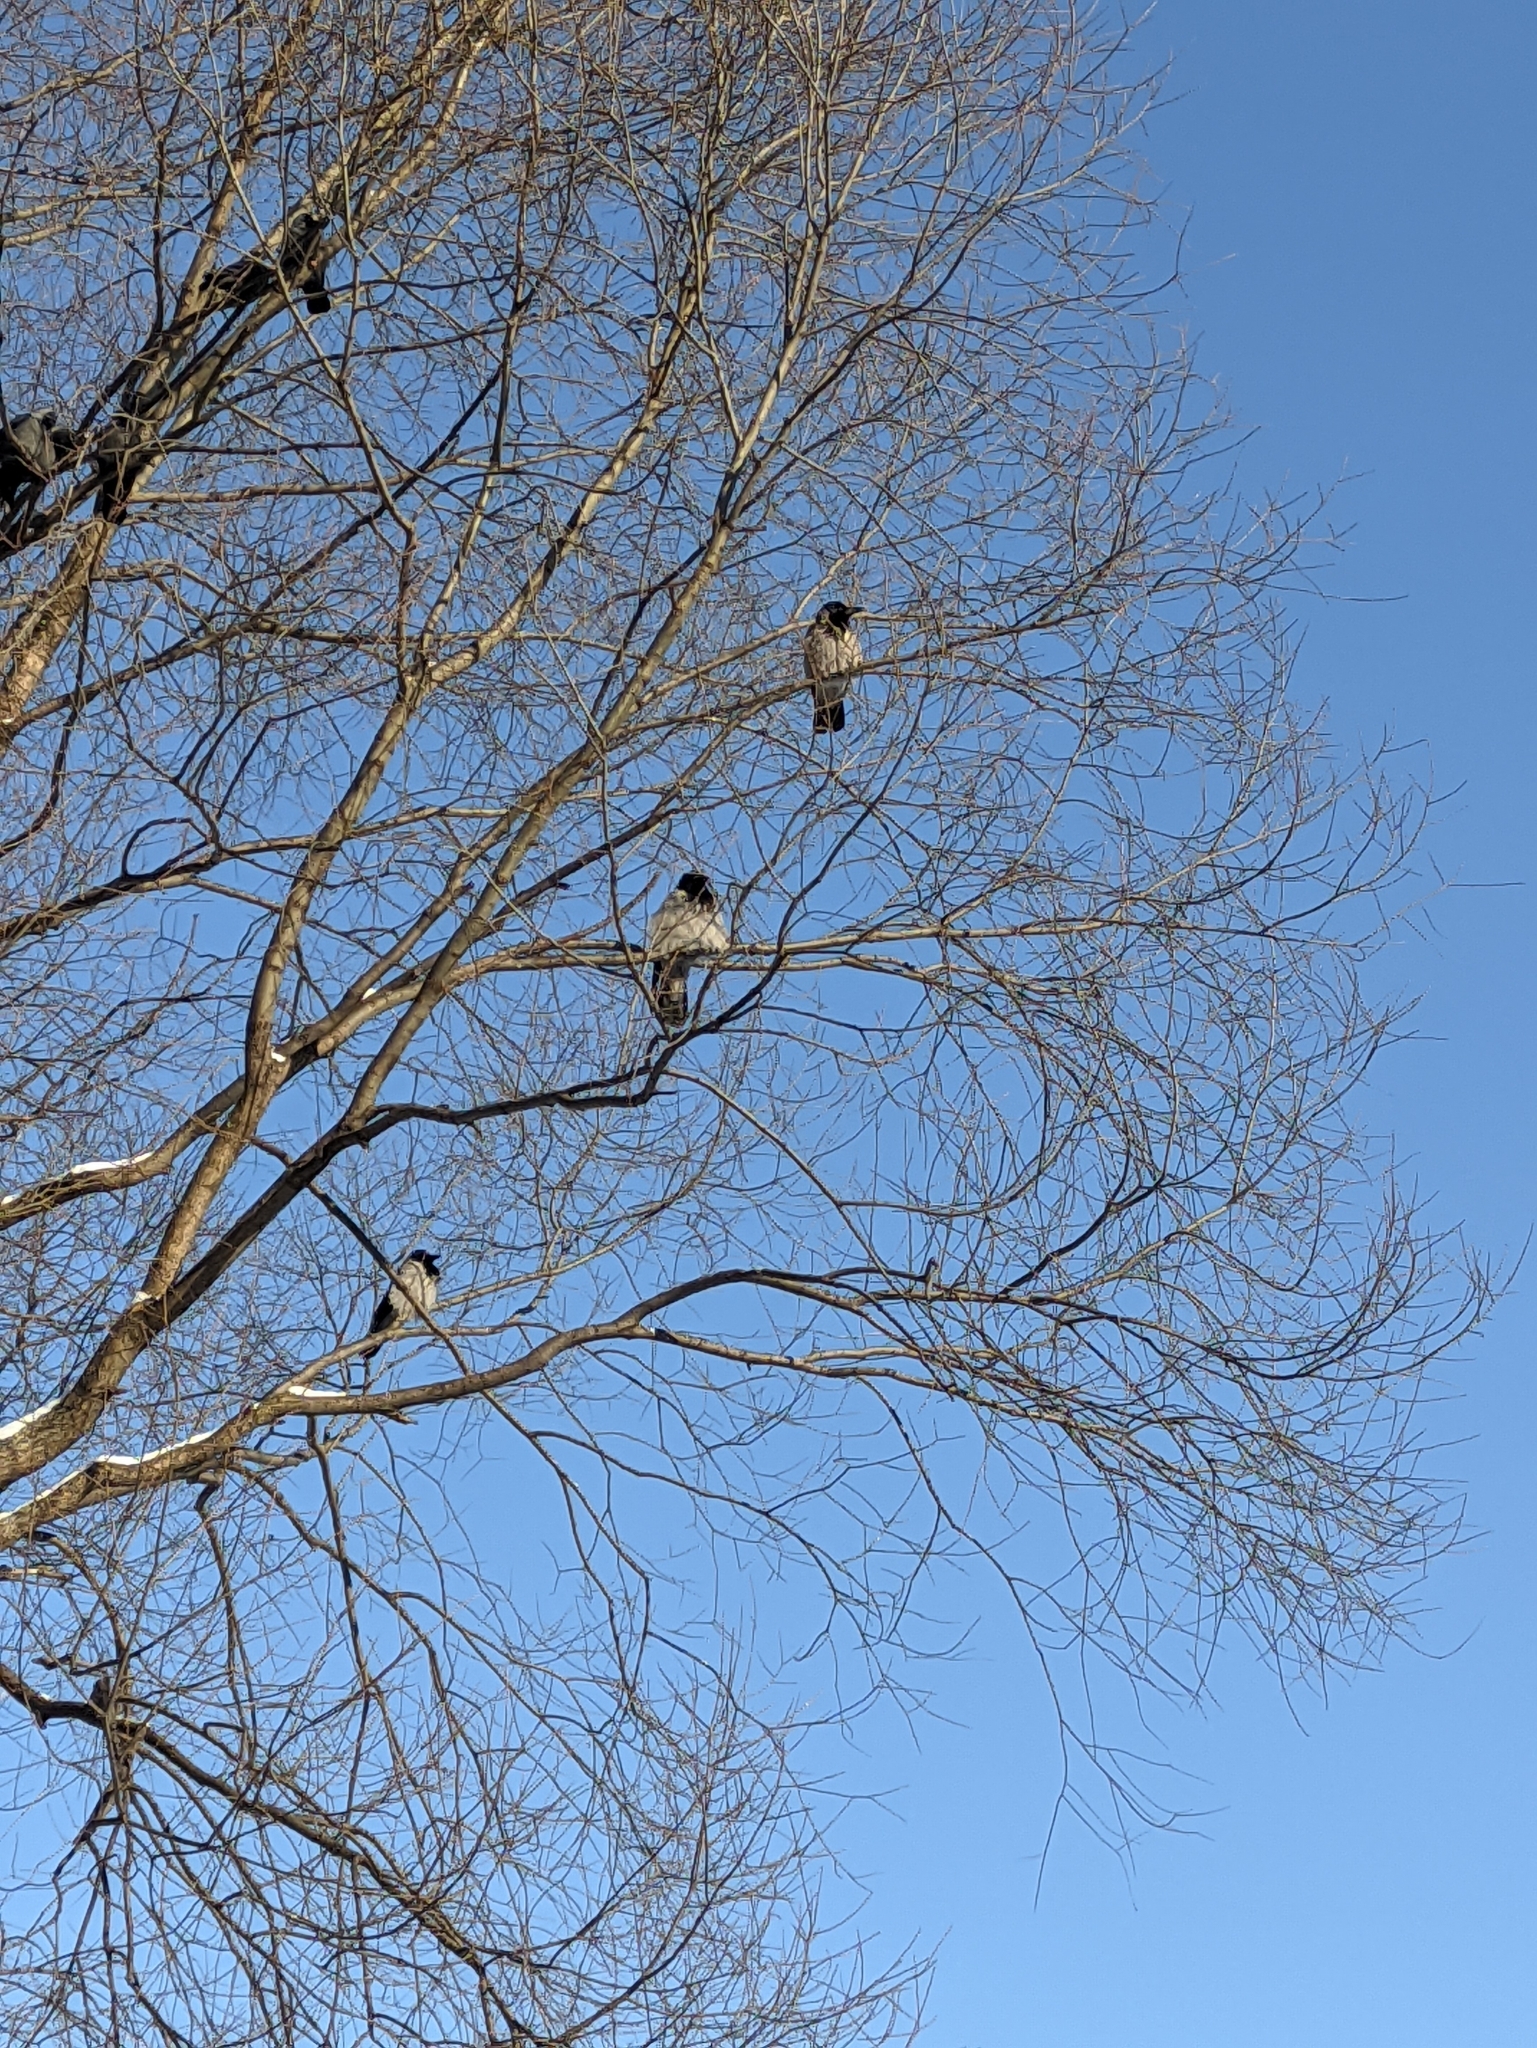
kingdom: Animalia
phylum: Chordata
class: Aves
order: Passeriformes
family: Corvidae
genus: Corvus
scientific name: Corvus cornix
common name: Hooded crow
